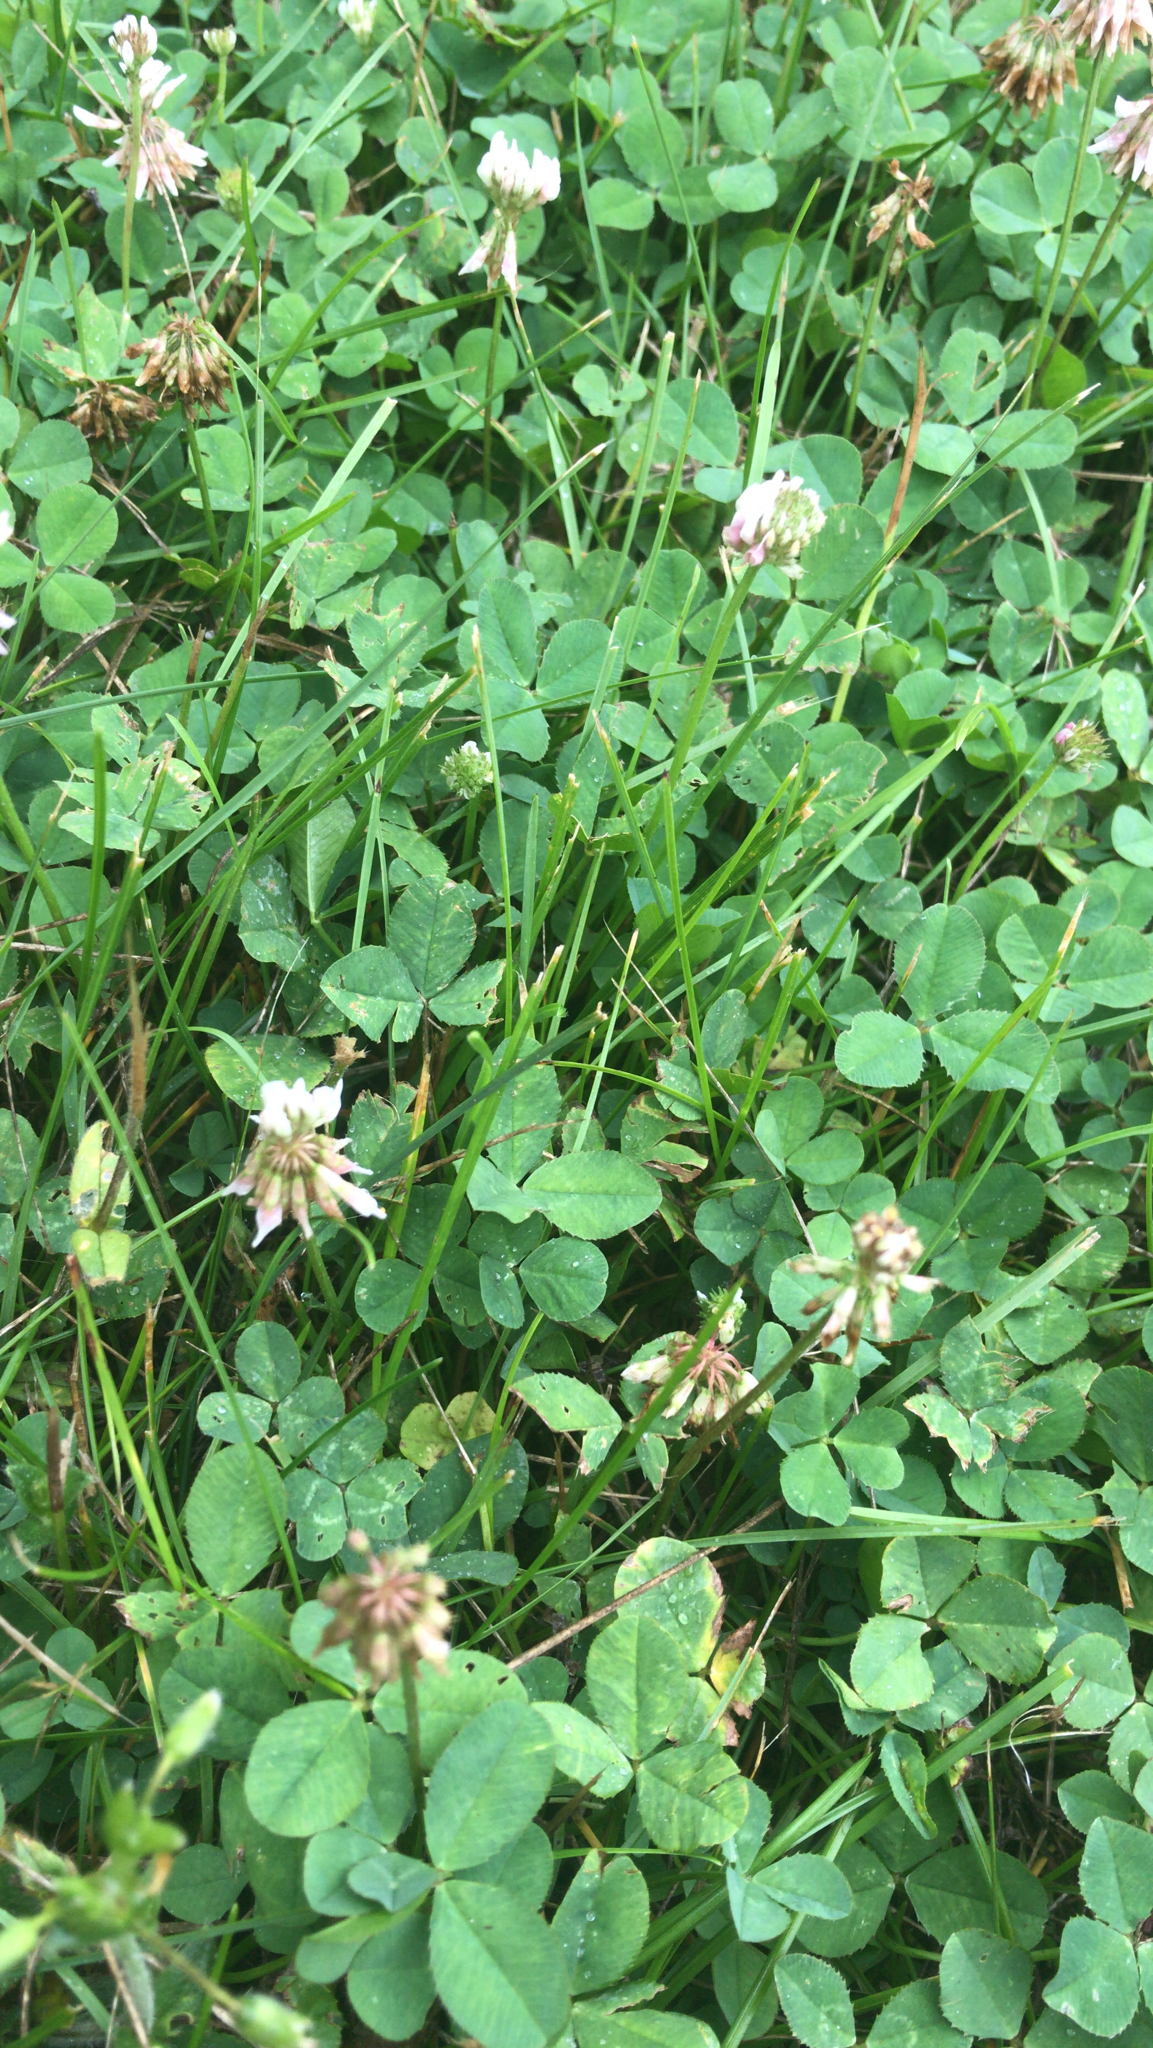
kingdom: Plantae
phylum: Tracheophyta
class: Magnoliopsida
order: Fabales
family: Fabaceae
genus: Trifolium
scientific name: Trifolium repens
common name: White clover
